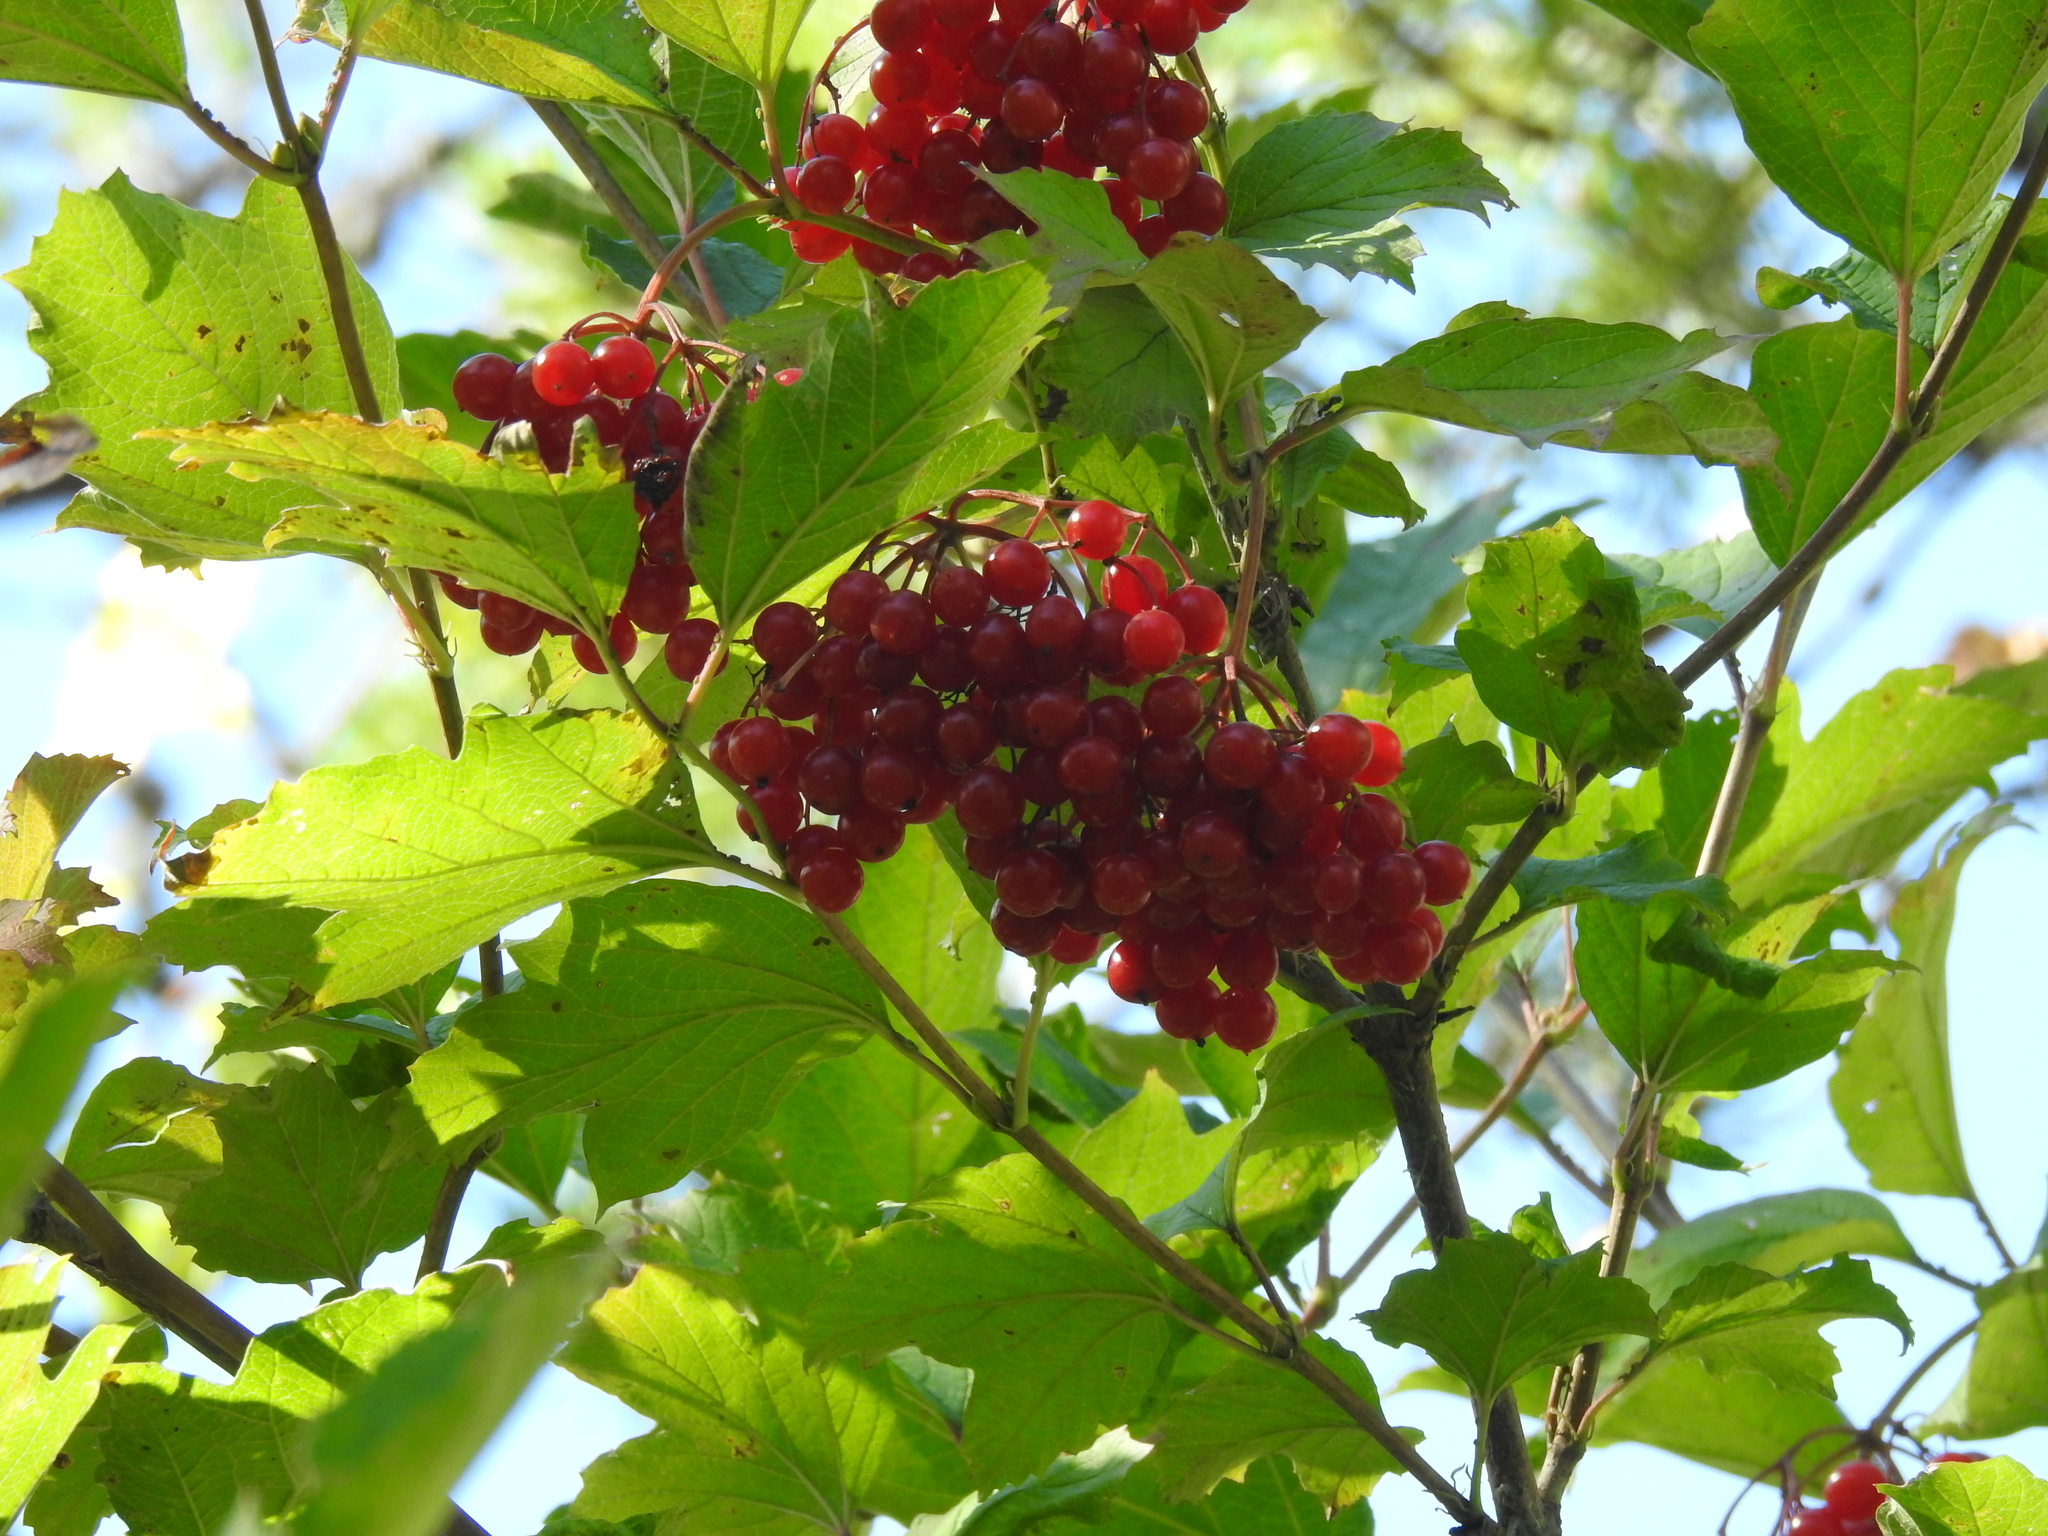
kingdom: Plantae
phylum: Tracheophyta
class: Magnoliopsida
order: Dipsacales
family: Viburnaceae
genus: Viburnum
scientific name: Viburnum opulus
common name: Guelder-rose
